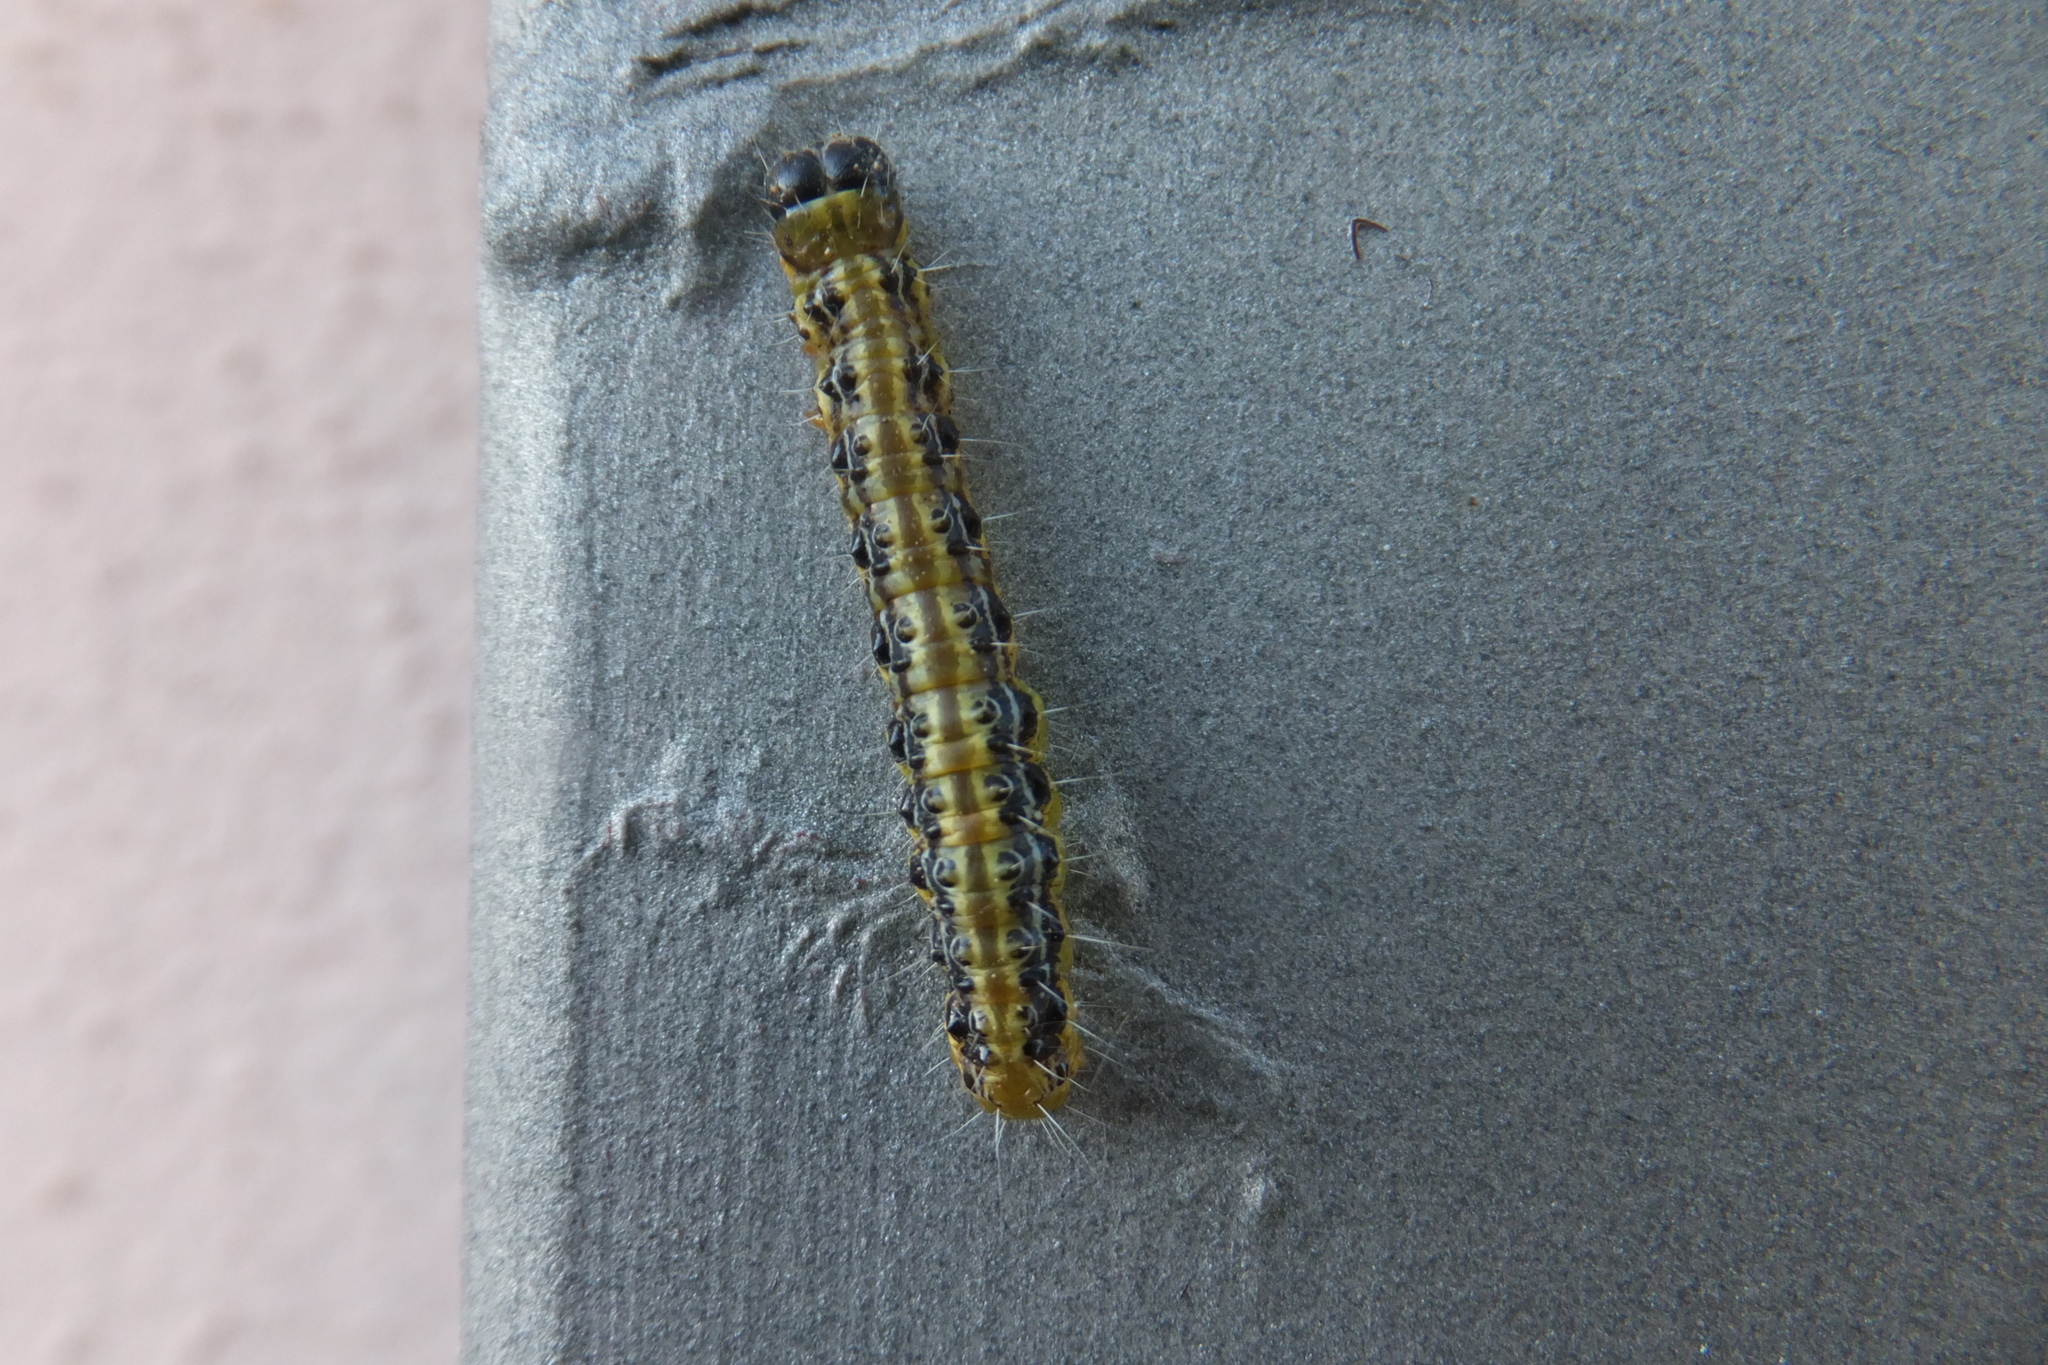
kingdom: Animalia
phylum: Arthropoda
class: Insecta
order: Lepidoptera
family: Crambidae
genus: Cydalima
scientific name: Cydalima perspectalis
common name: Box tree moth
